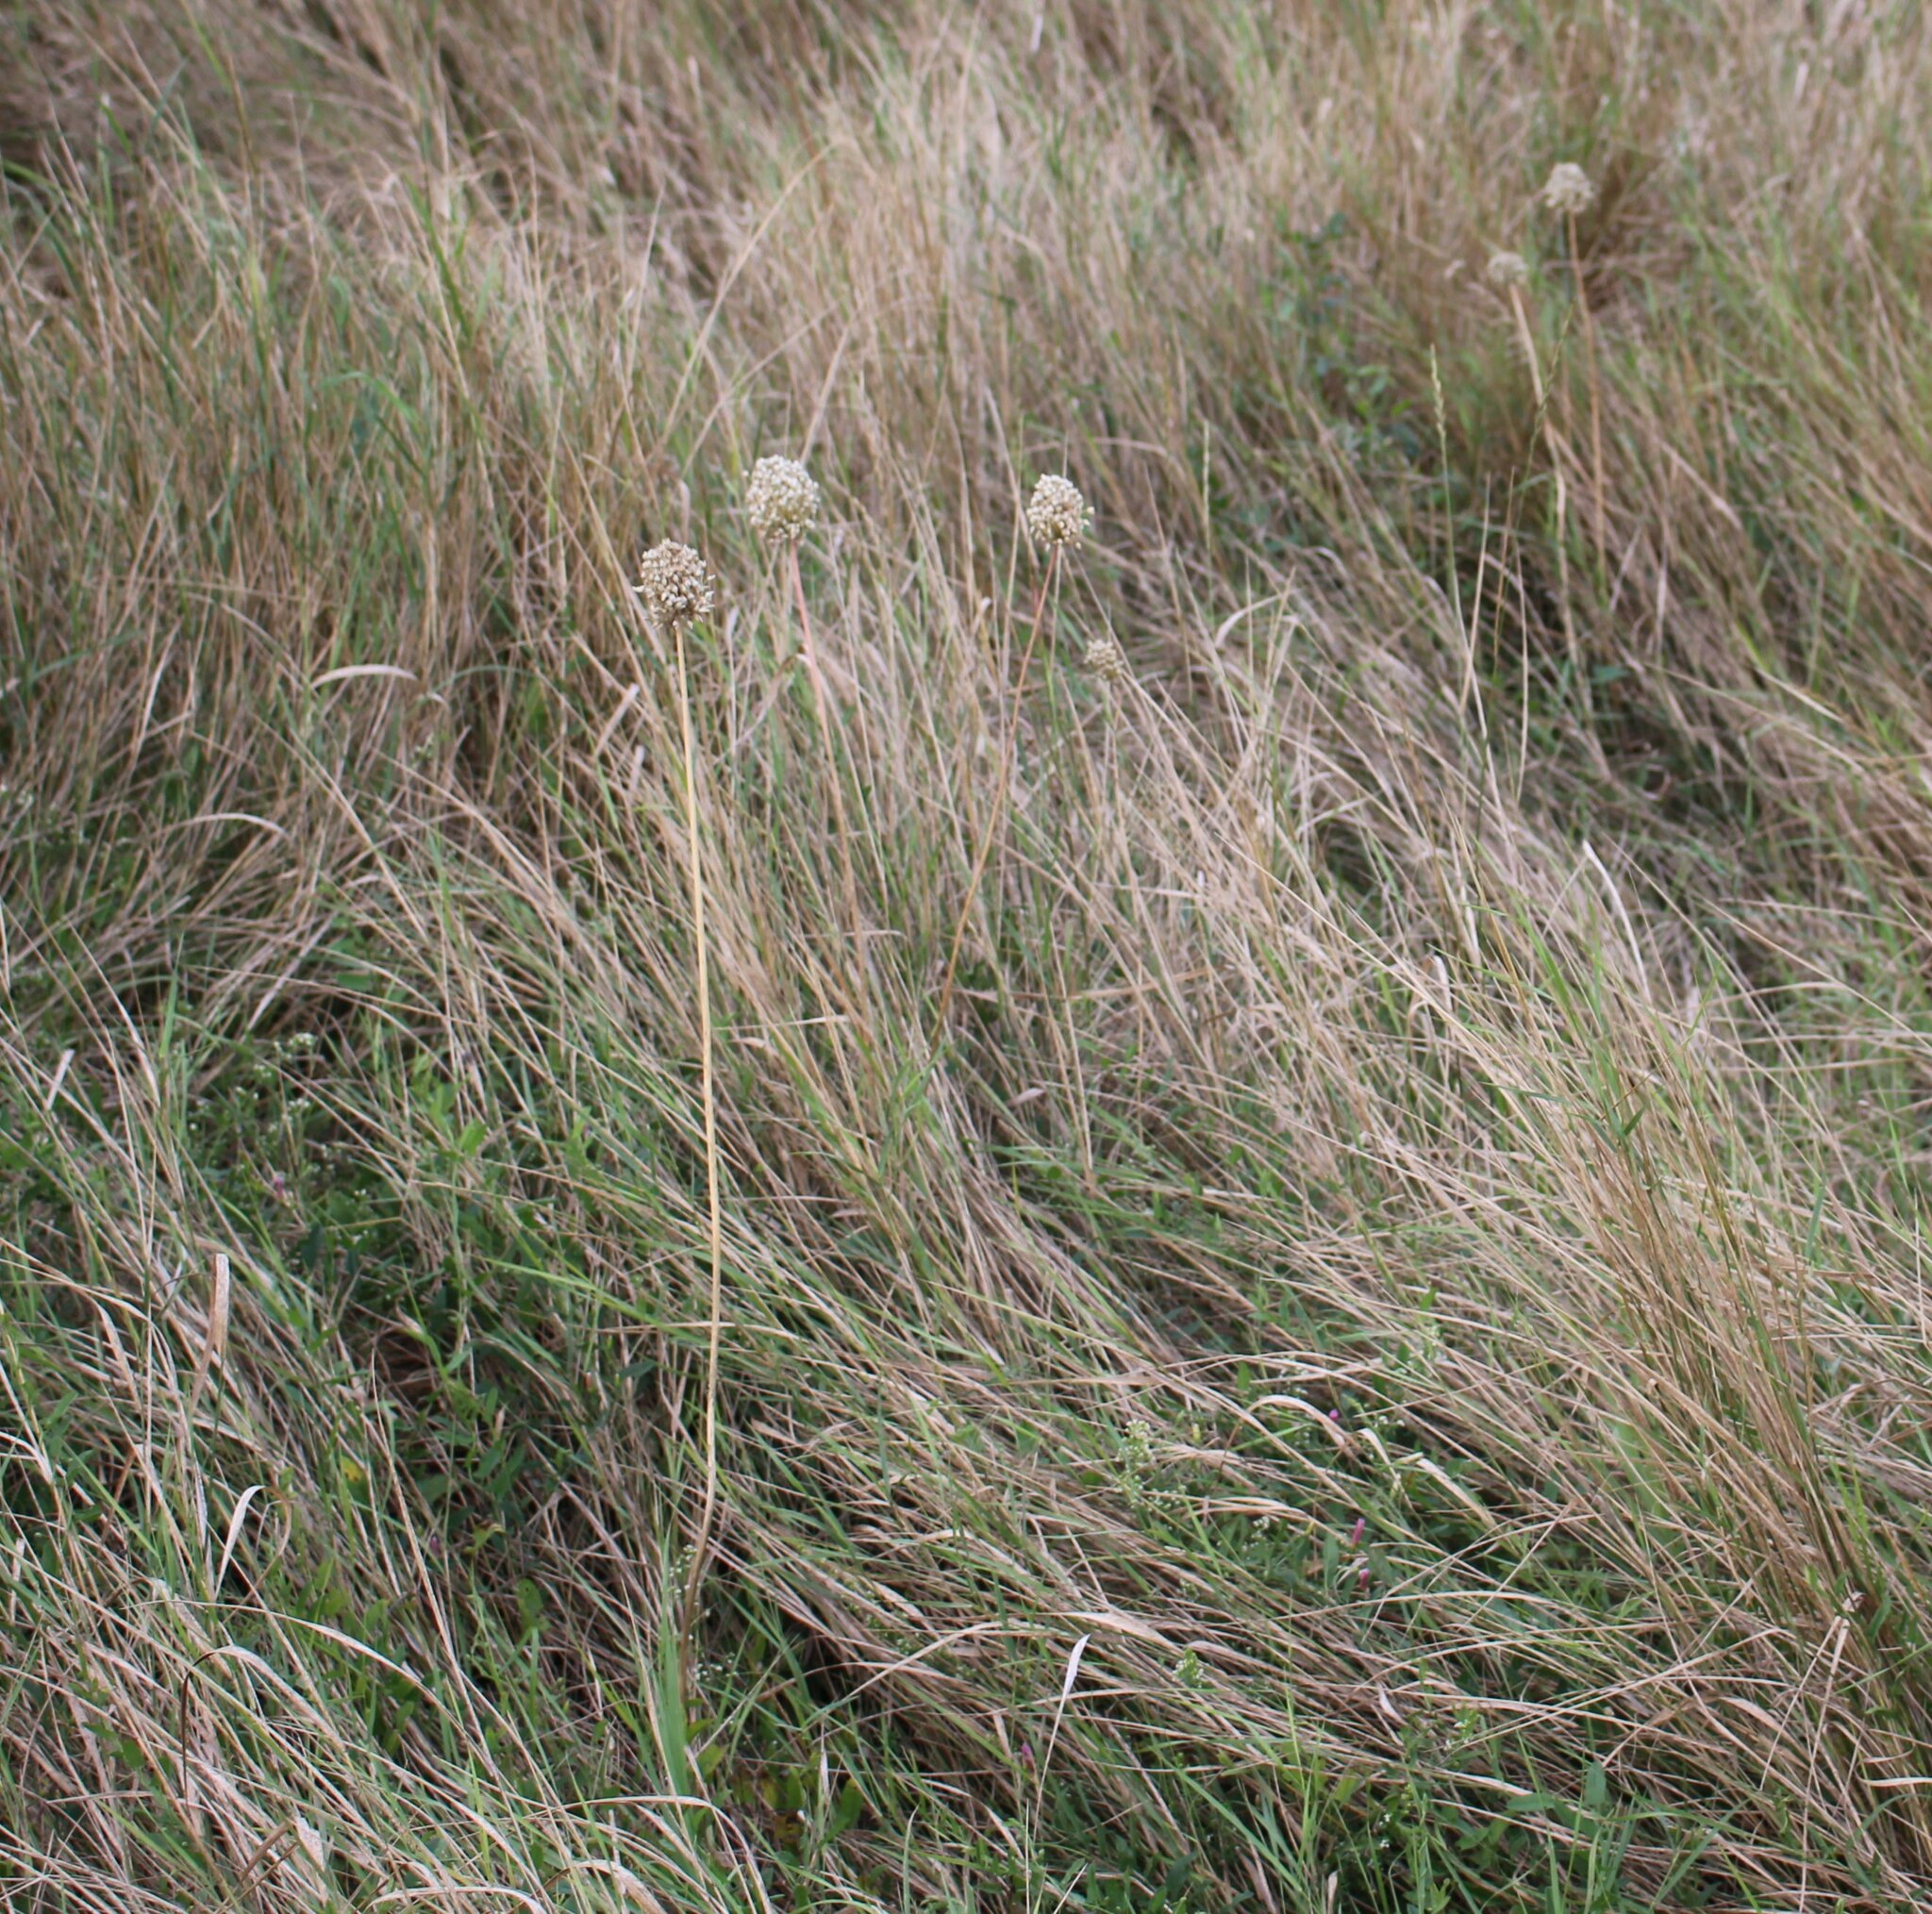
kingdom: Plantae
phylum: Tracheophyta
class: Liliopsida
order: Asparagales
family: Amaryllidaceae
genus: Allium
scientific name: Allium rotundum
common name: Sand leek
